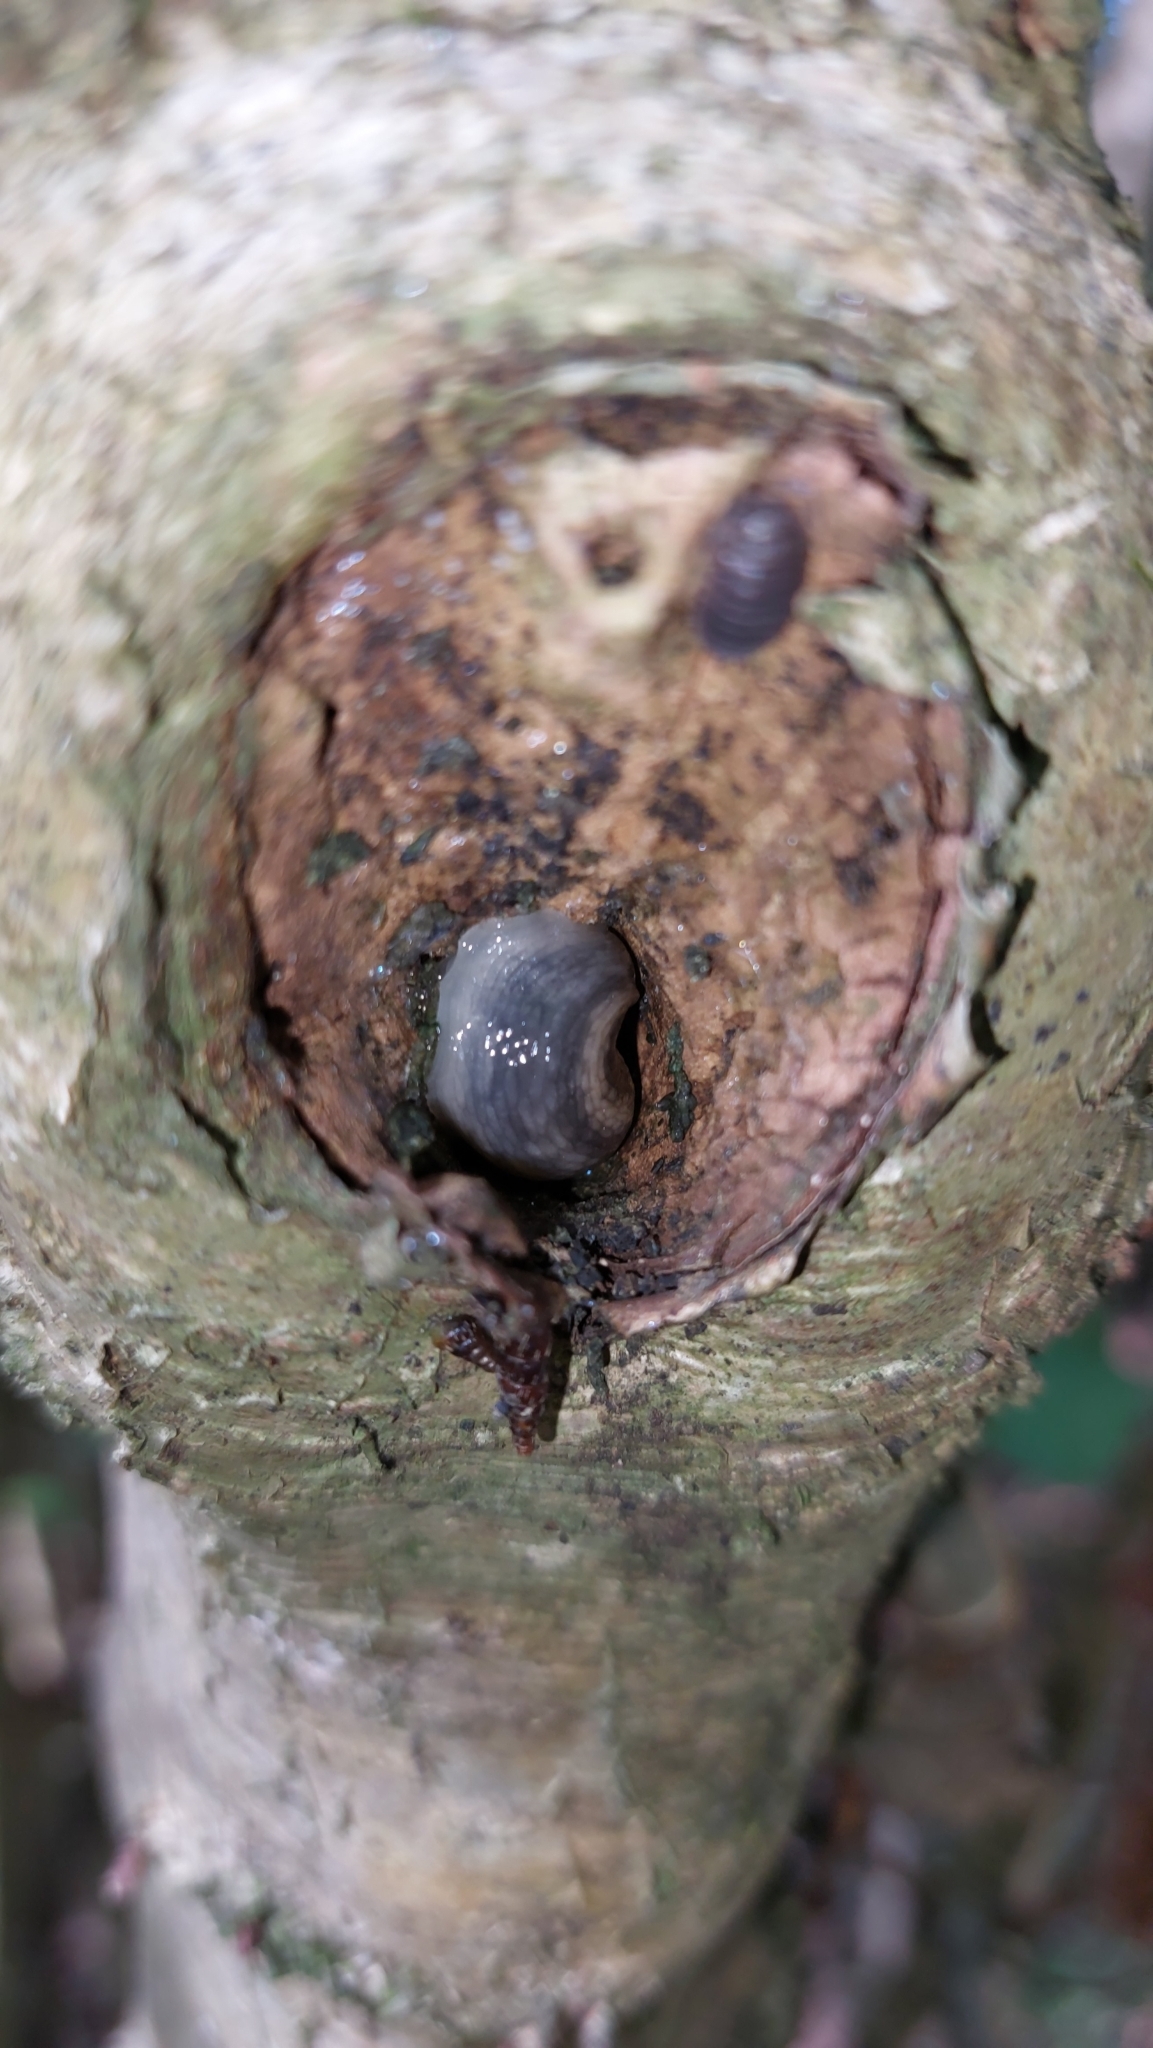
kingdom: Animalia
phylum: Mollusca
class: Gastropoda
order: Stylommatophora
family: Limacidae
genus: Lehmannia
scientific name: Lehmannia marginata
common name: Tree slug
